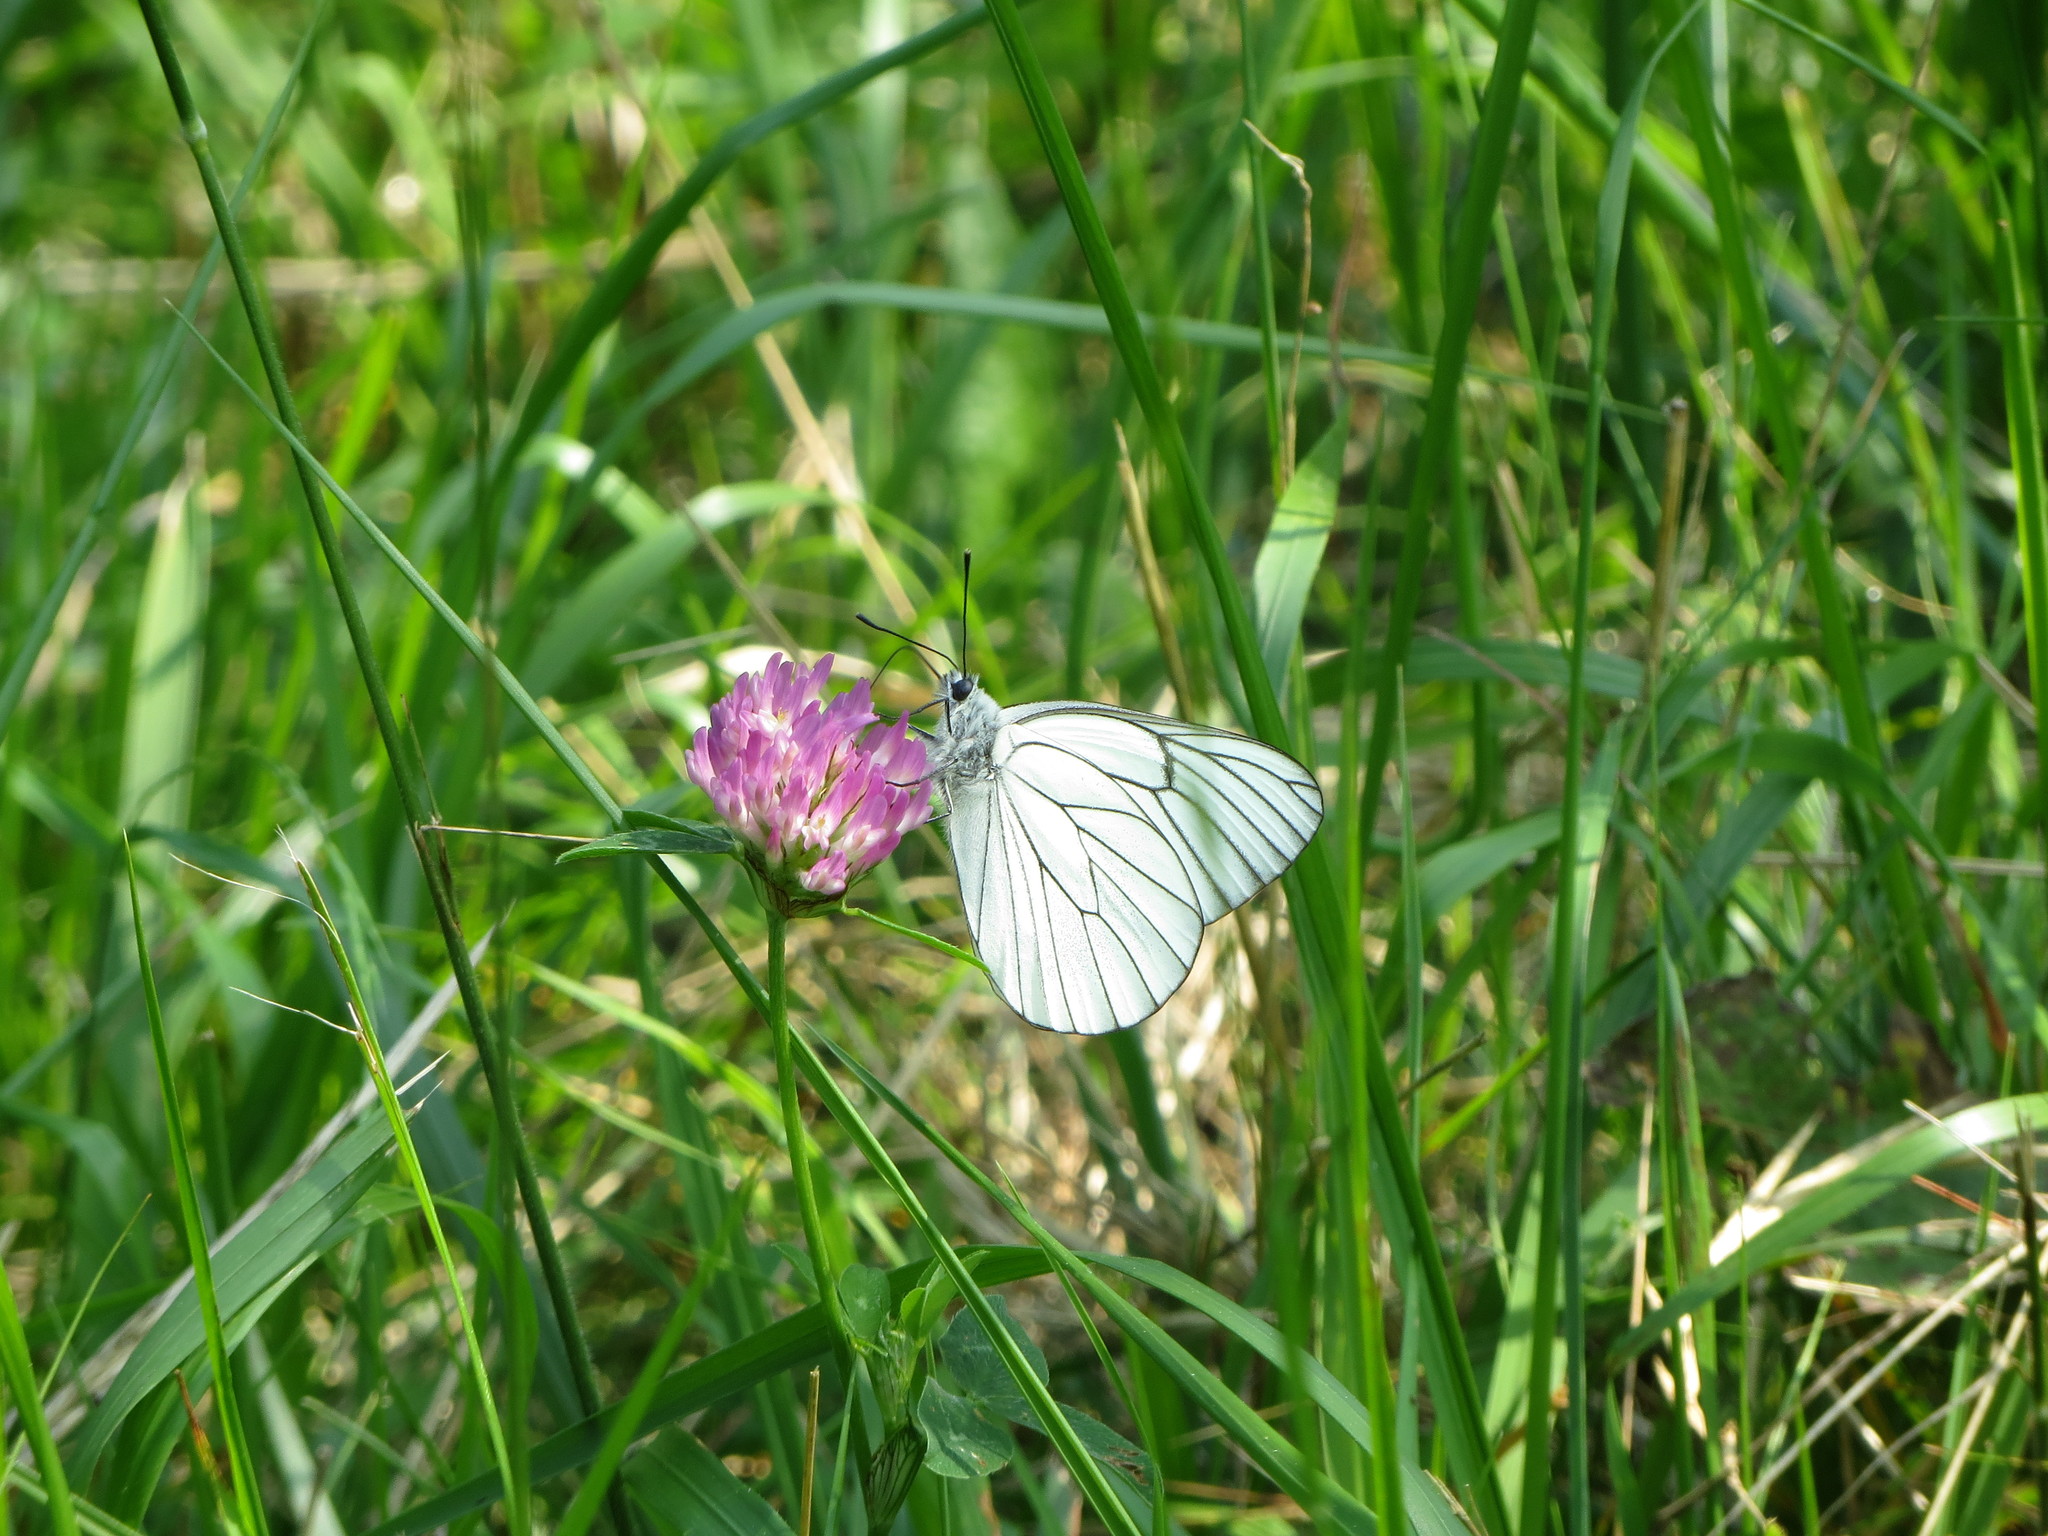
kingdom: Animalia
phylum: Arthropoda
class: Insecta
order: Lepidoptera
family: Pieridae
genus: Aporia
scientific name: Aporia crataegi
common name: Black-veined white
